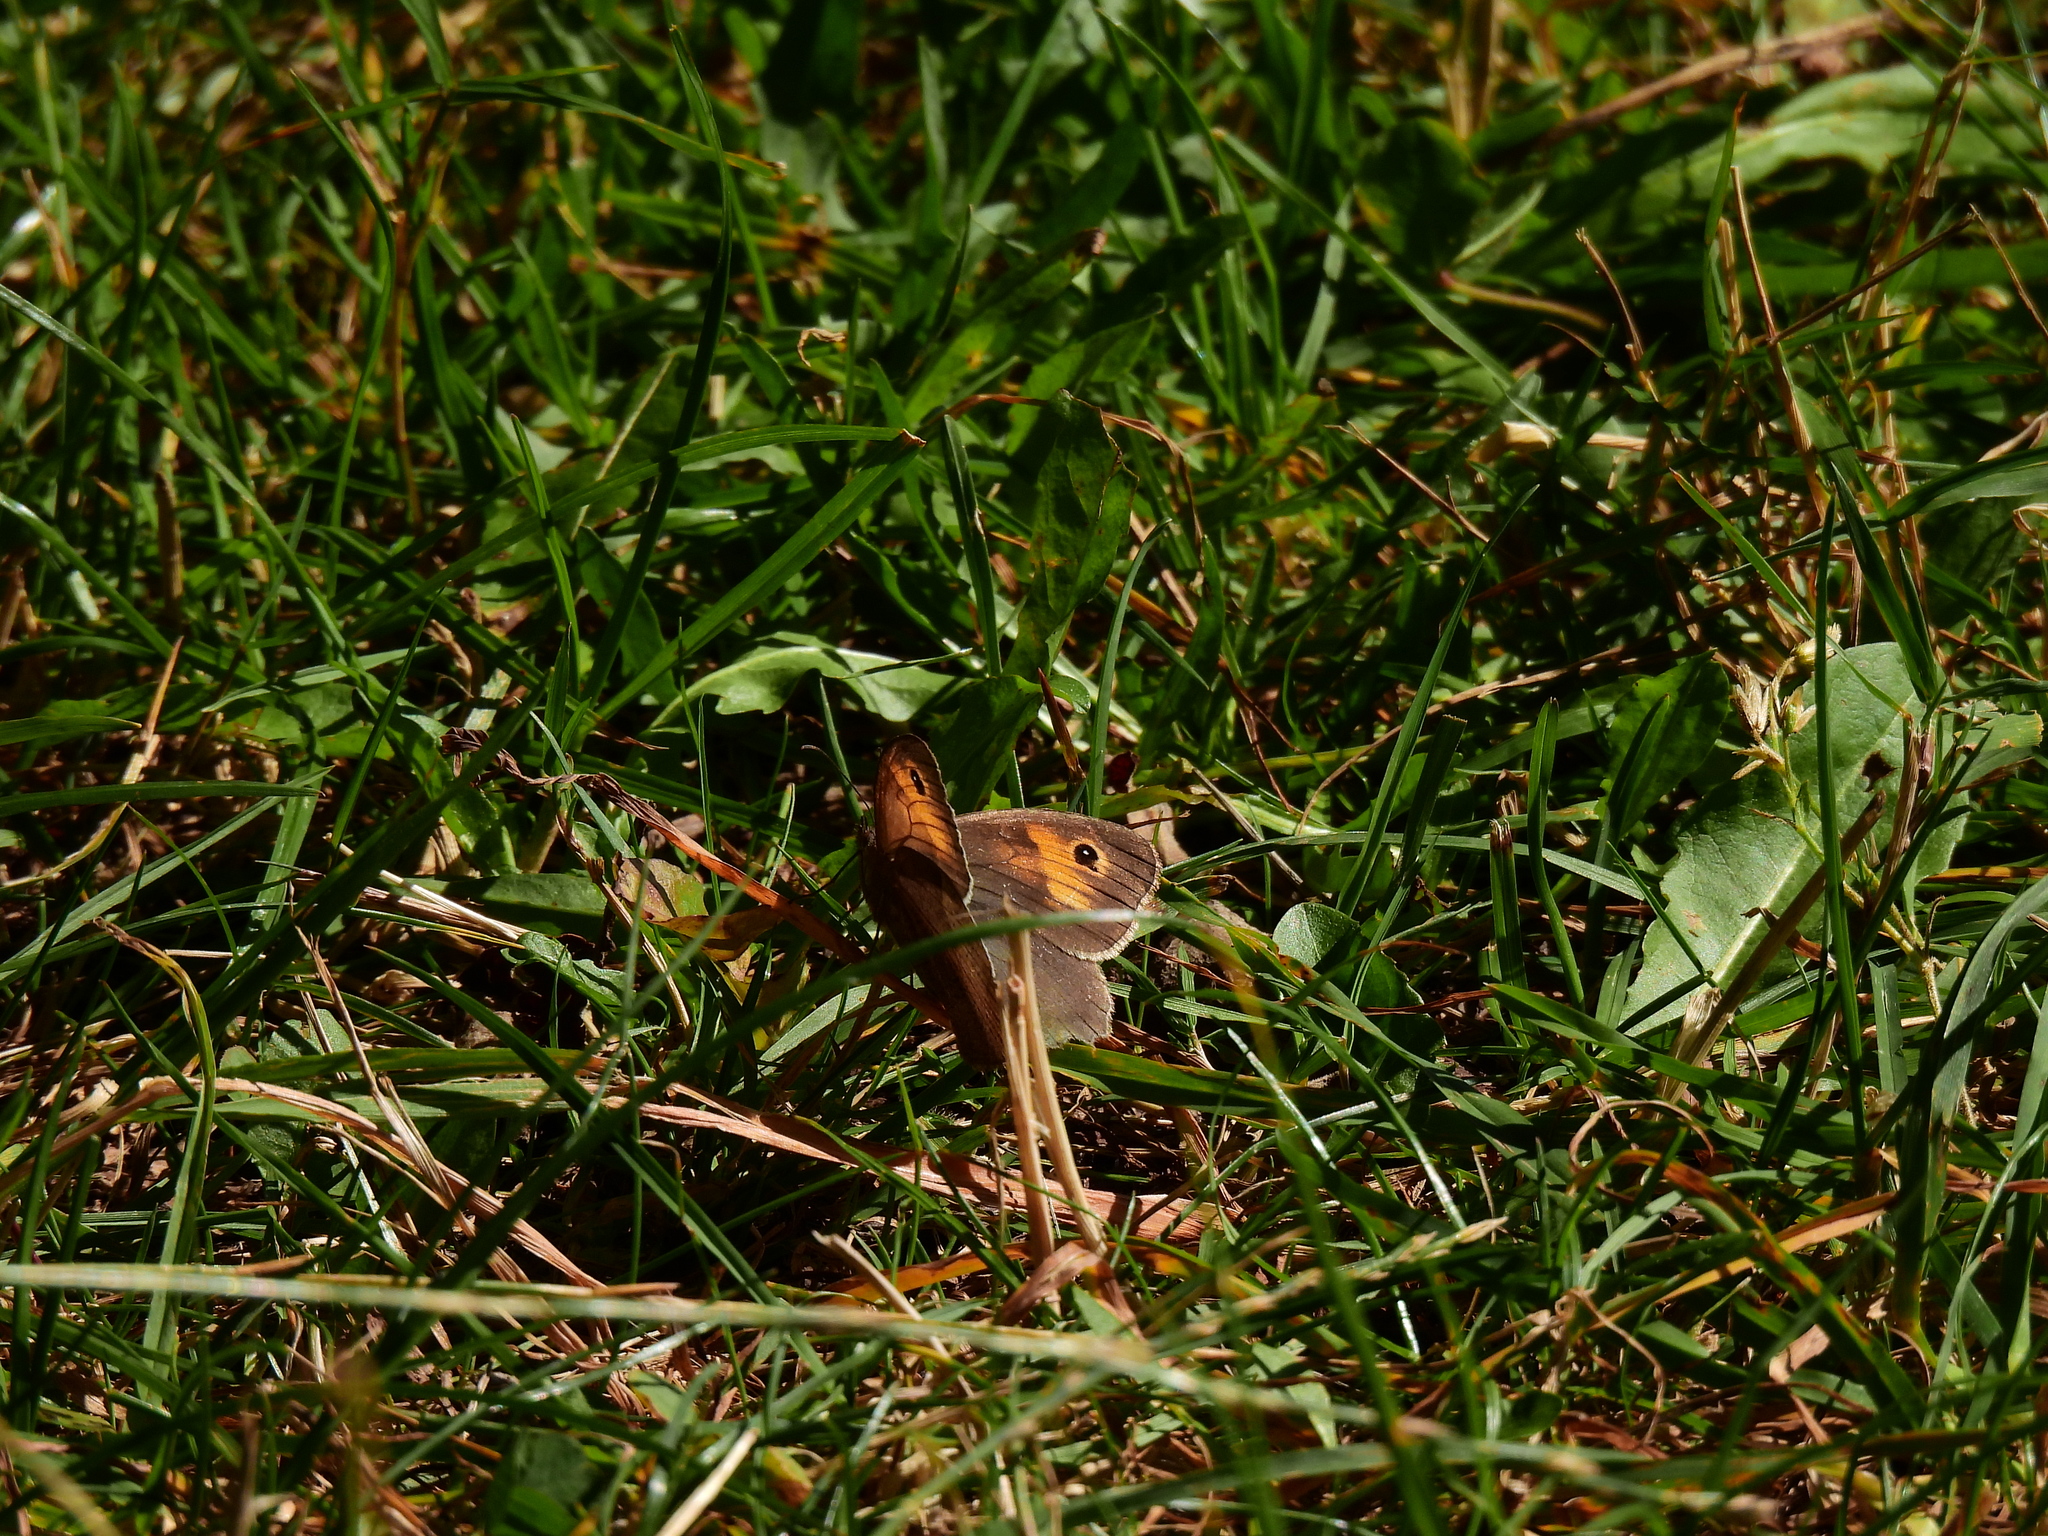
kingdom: Animalia
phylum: Arthropoda
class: Insecta
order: Lepidoptera
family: Nymphalidae
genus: Maniola
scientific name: Maniola jurtina
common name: Meadow brown
